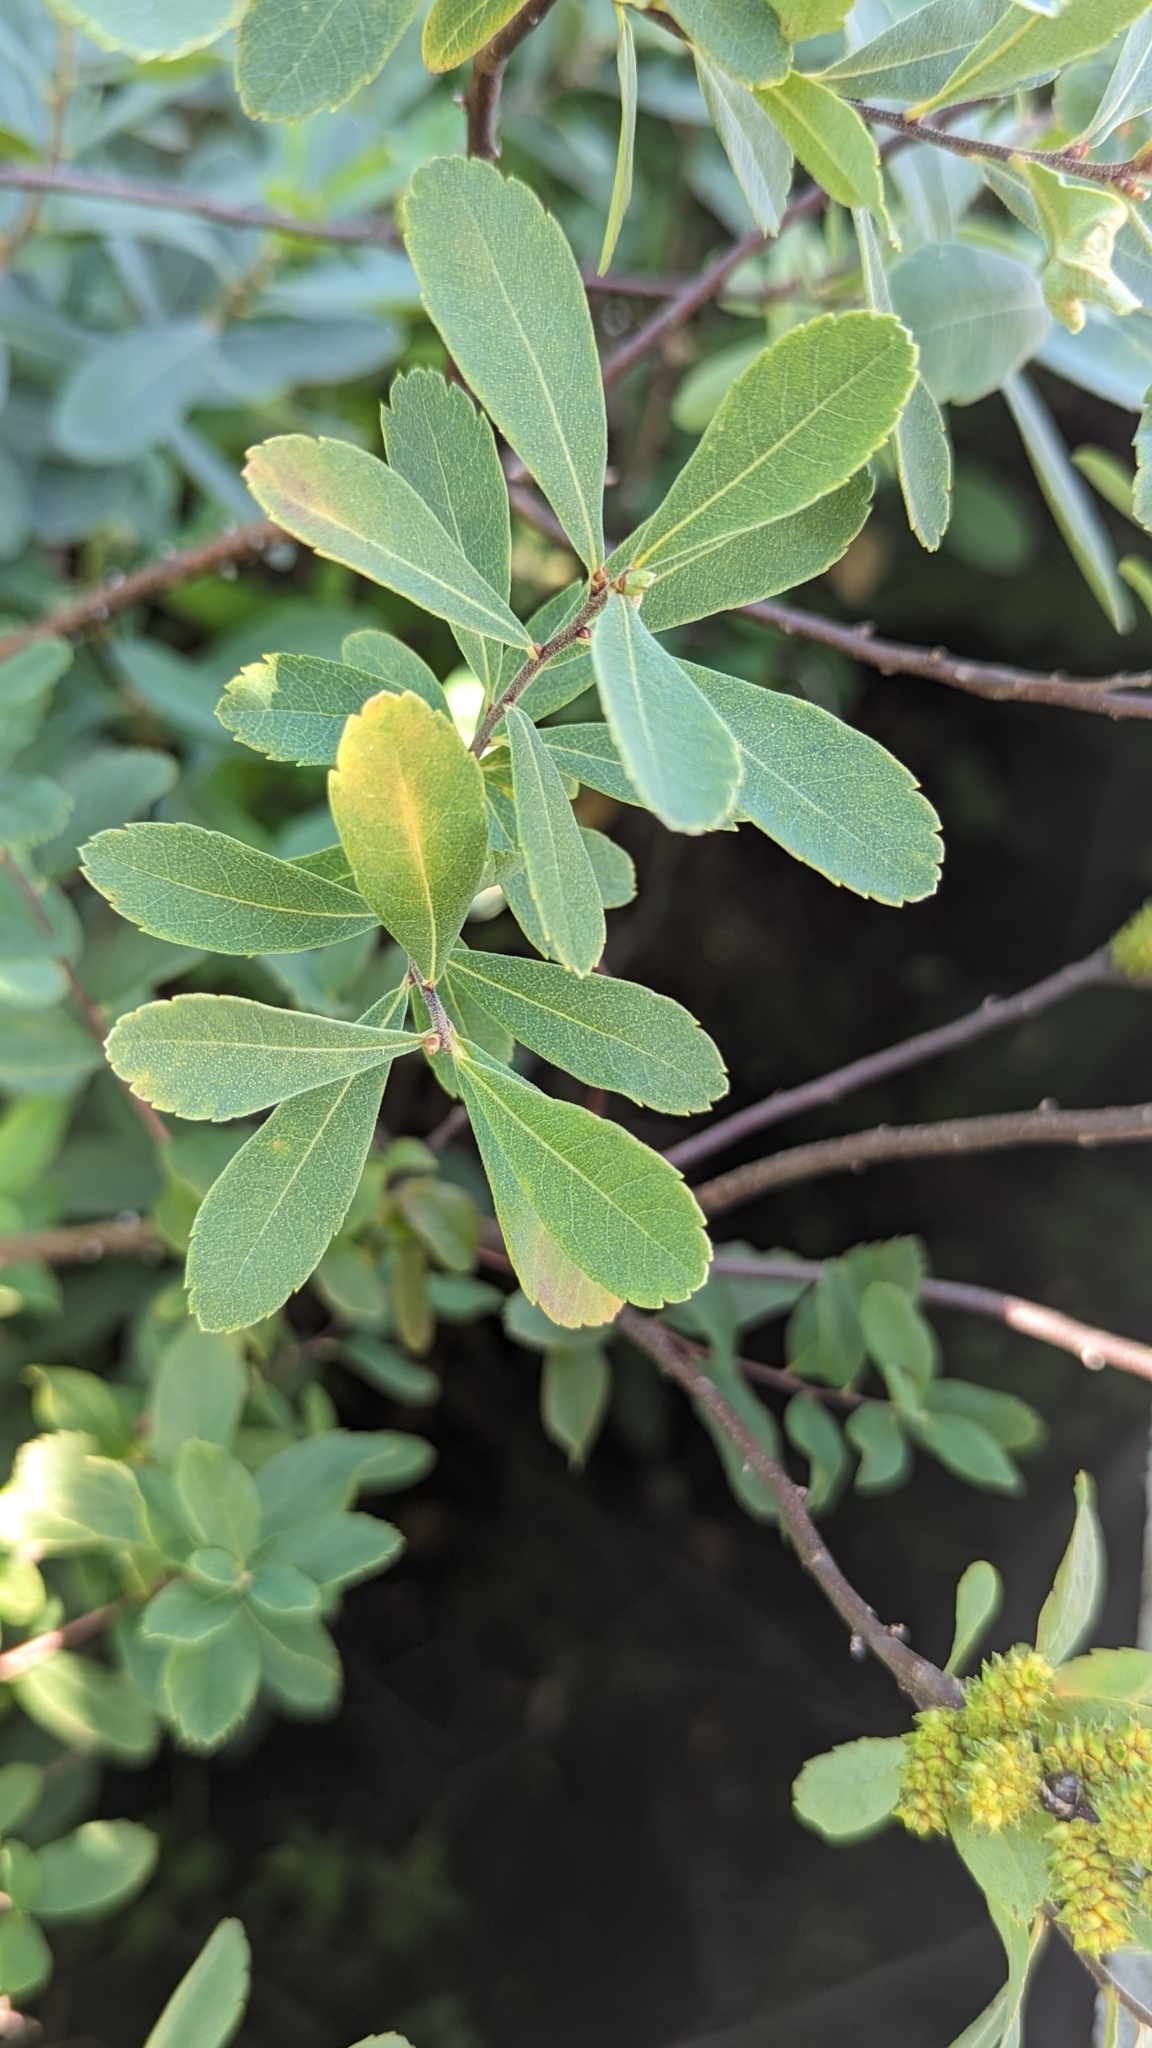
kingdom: Plantae
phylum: Tracheophyta
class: Magnoliopsida
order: Fagales
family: Myricaceae
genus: Myrica
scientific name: Myrica gale
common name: Sweet gale
